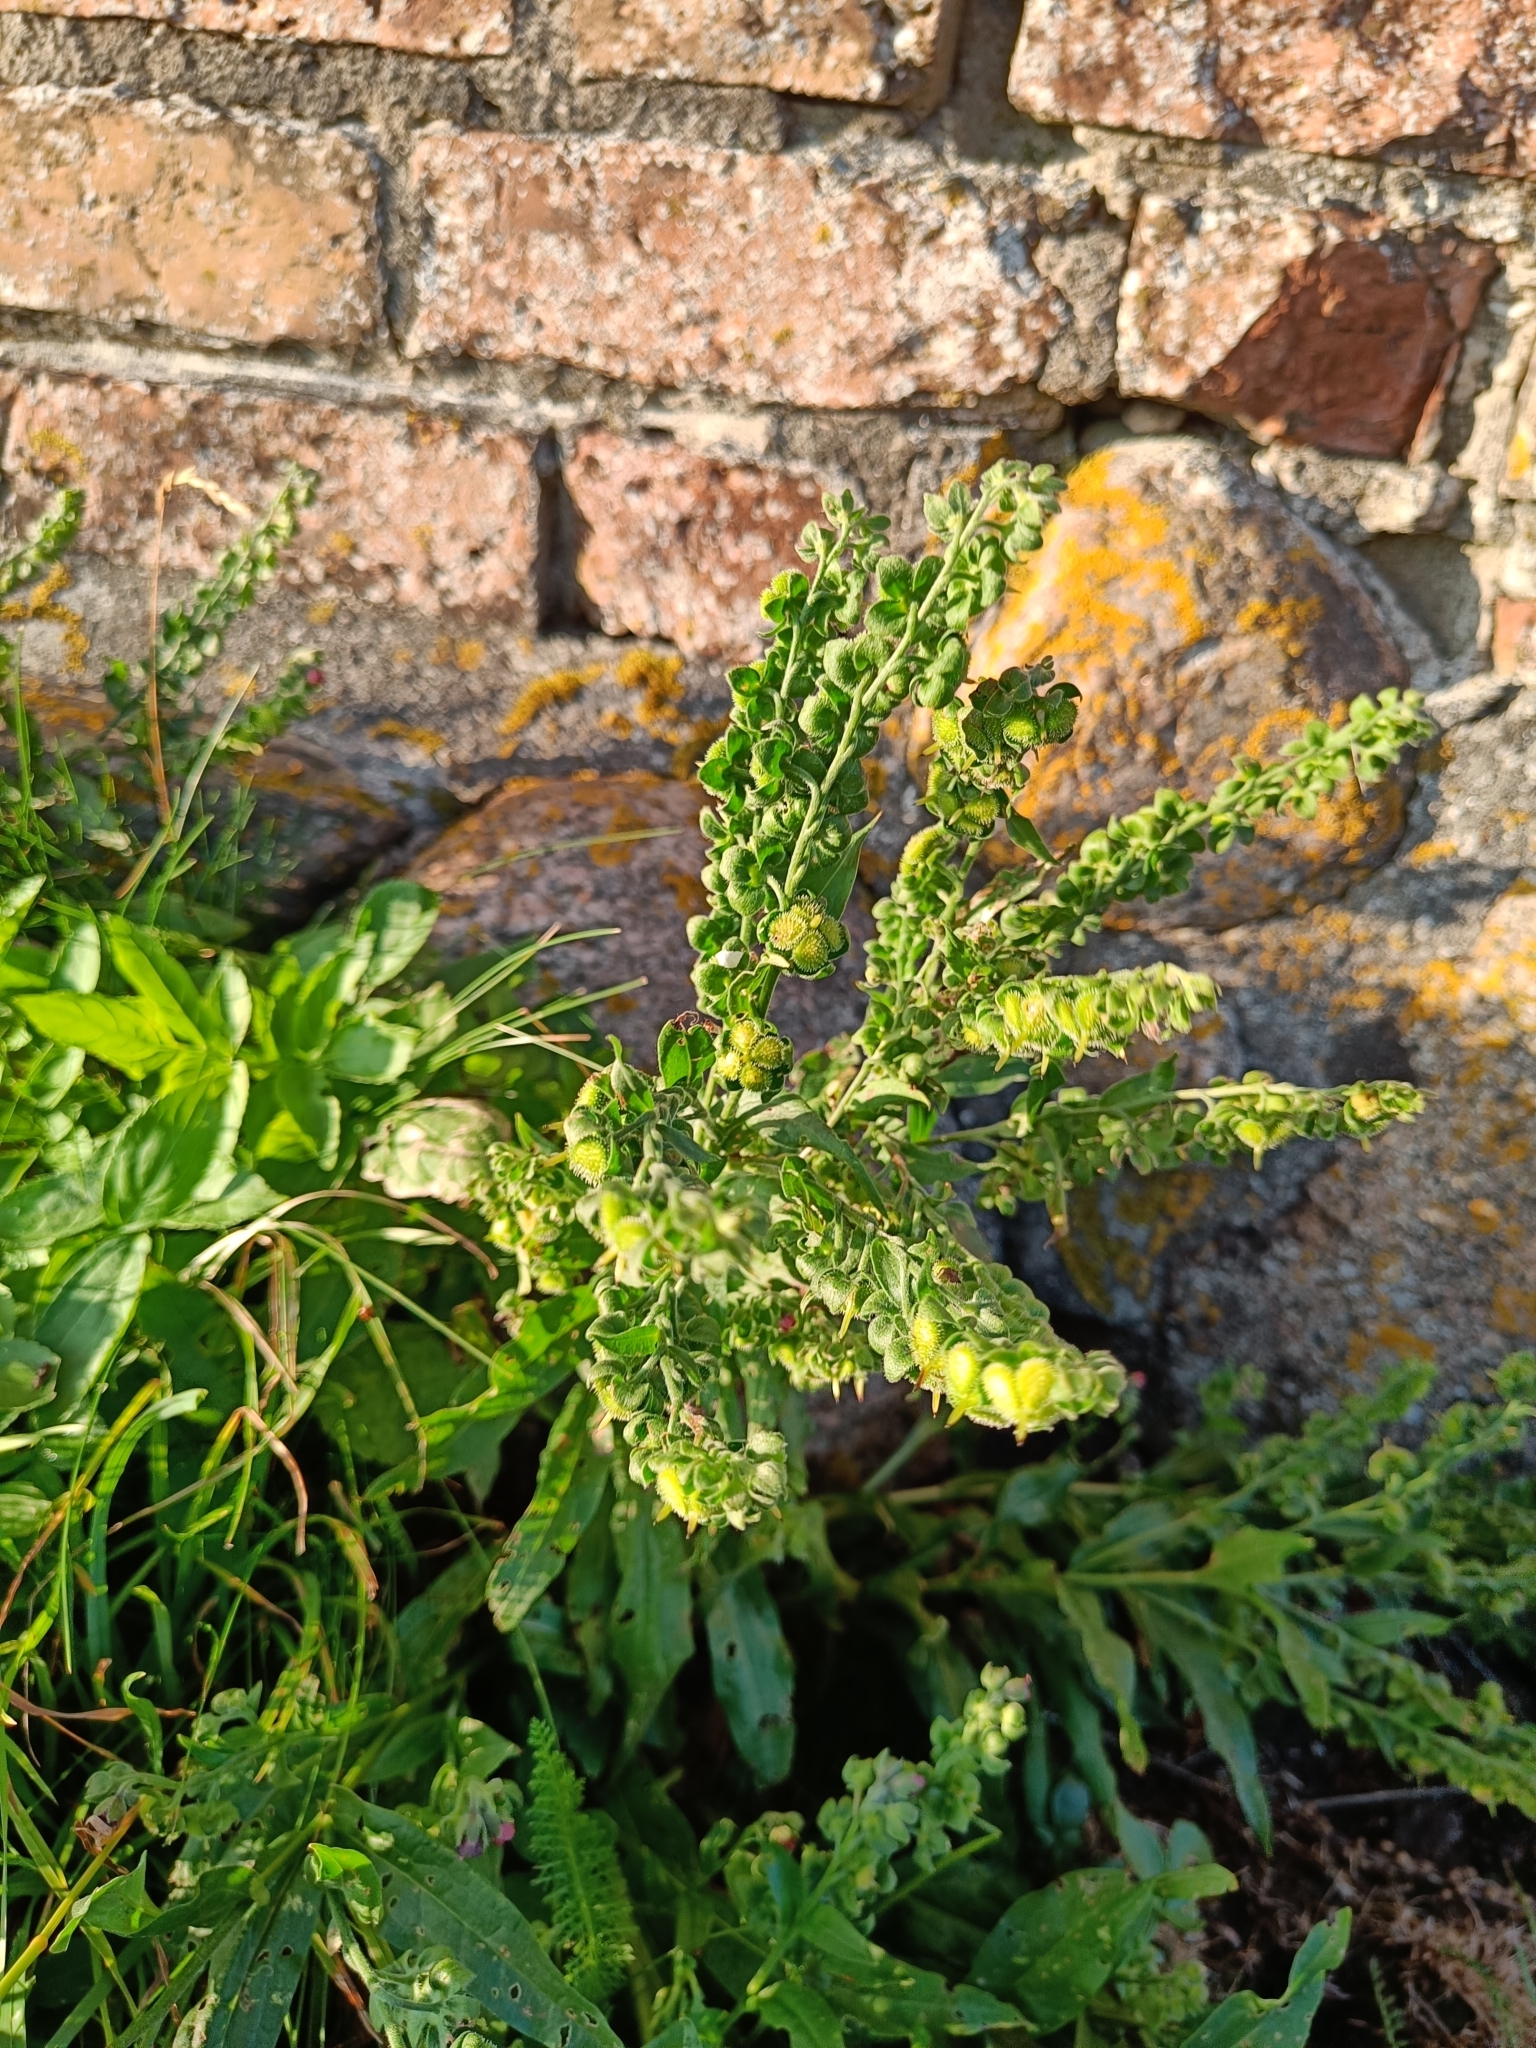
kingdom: Plantae
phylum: Tracheophyta
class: Magnoliopsida
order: Boraginales
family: Boraginaceae
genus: Cynoglossum
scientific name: Cynoglossum officinale
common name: Hound's-tongue
